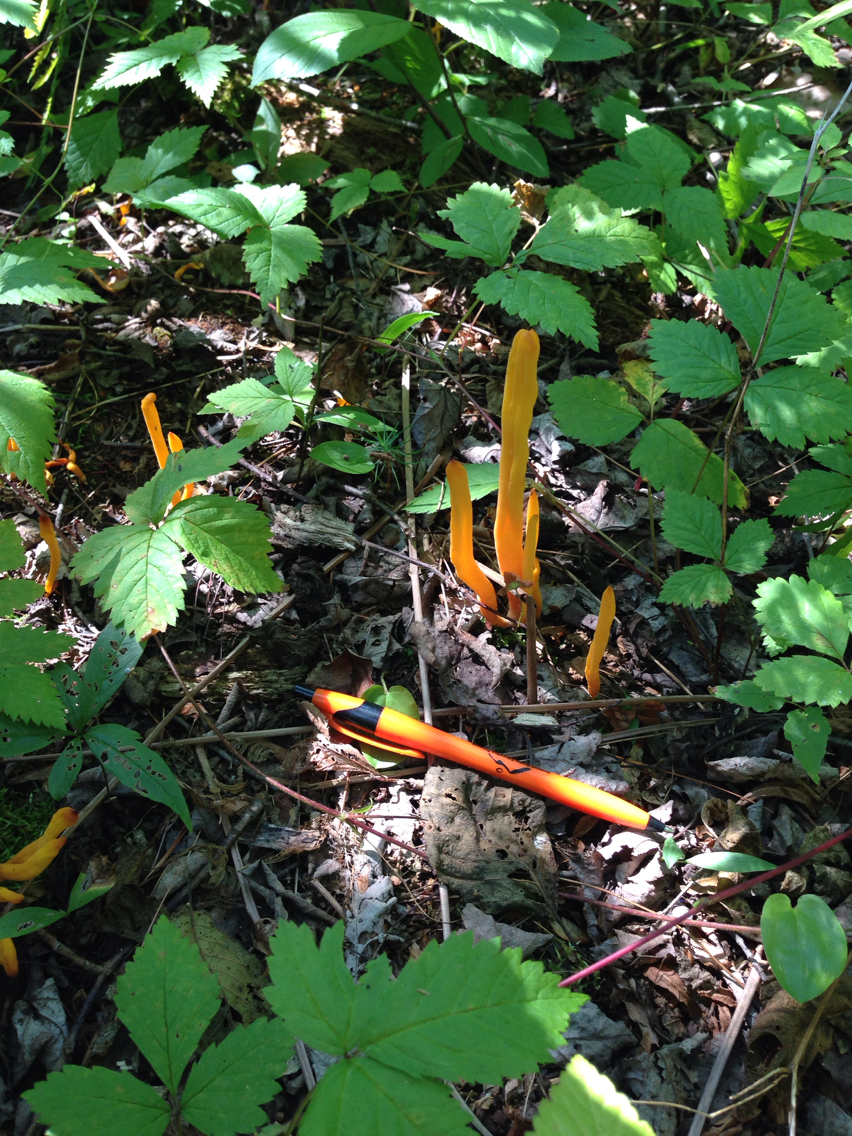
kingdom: Fungi
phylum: Basidiomycota
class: Agaricomycetes
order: Agaricales
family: Clavariaceae
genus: Clavulinopsis
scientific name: Clavulinopsis fusiformis
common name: Golden spindles
